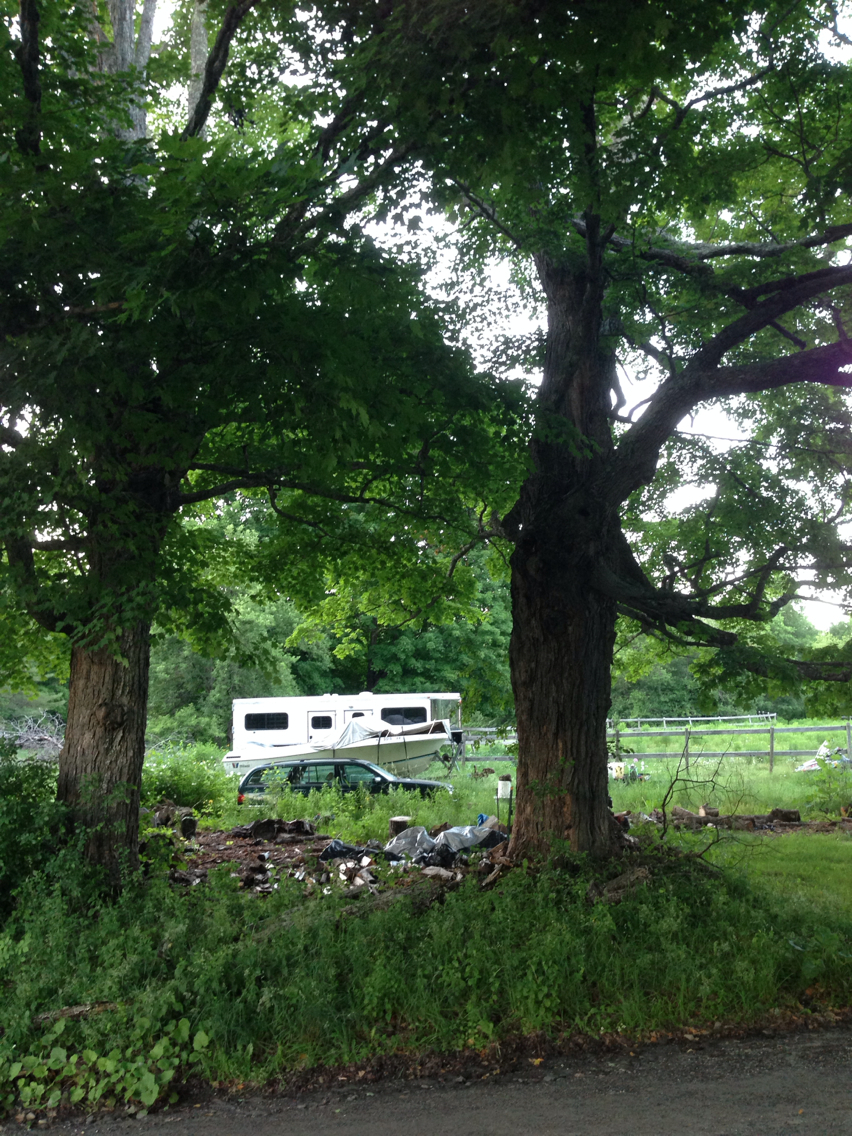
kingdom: Plantae
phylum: Tracheophyta
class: Magnoliopsida
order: Sapindales
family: Sapindaceae
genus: Acer
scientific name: Acer saccharum
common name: Sugar maple
